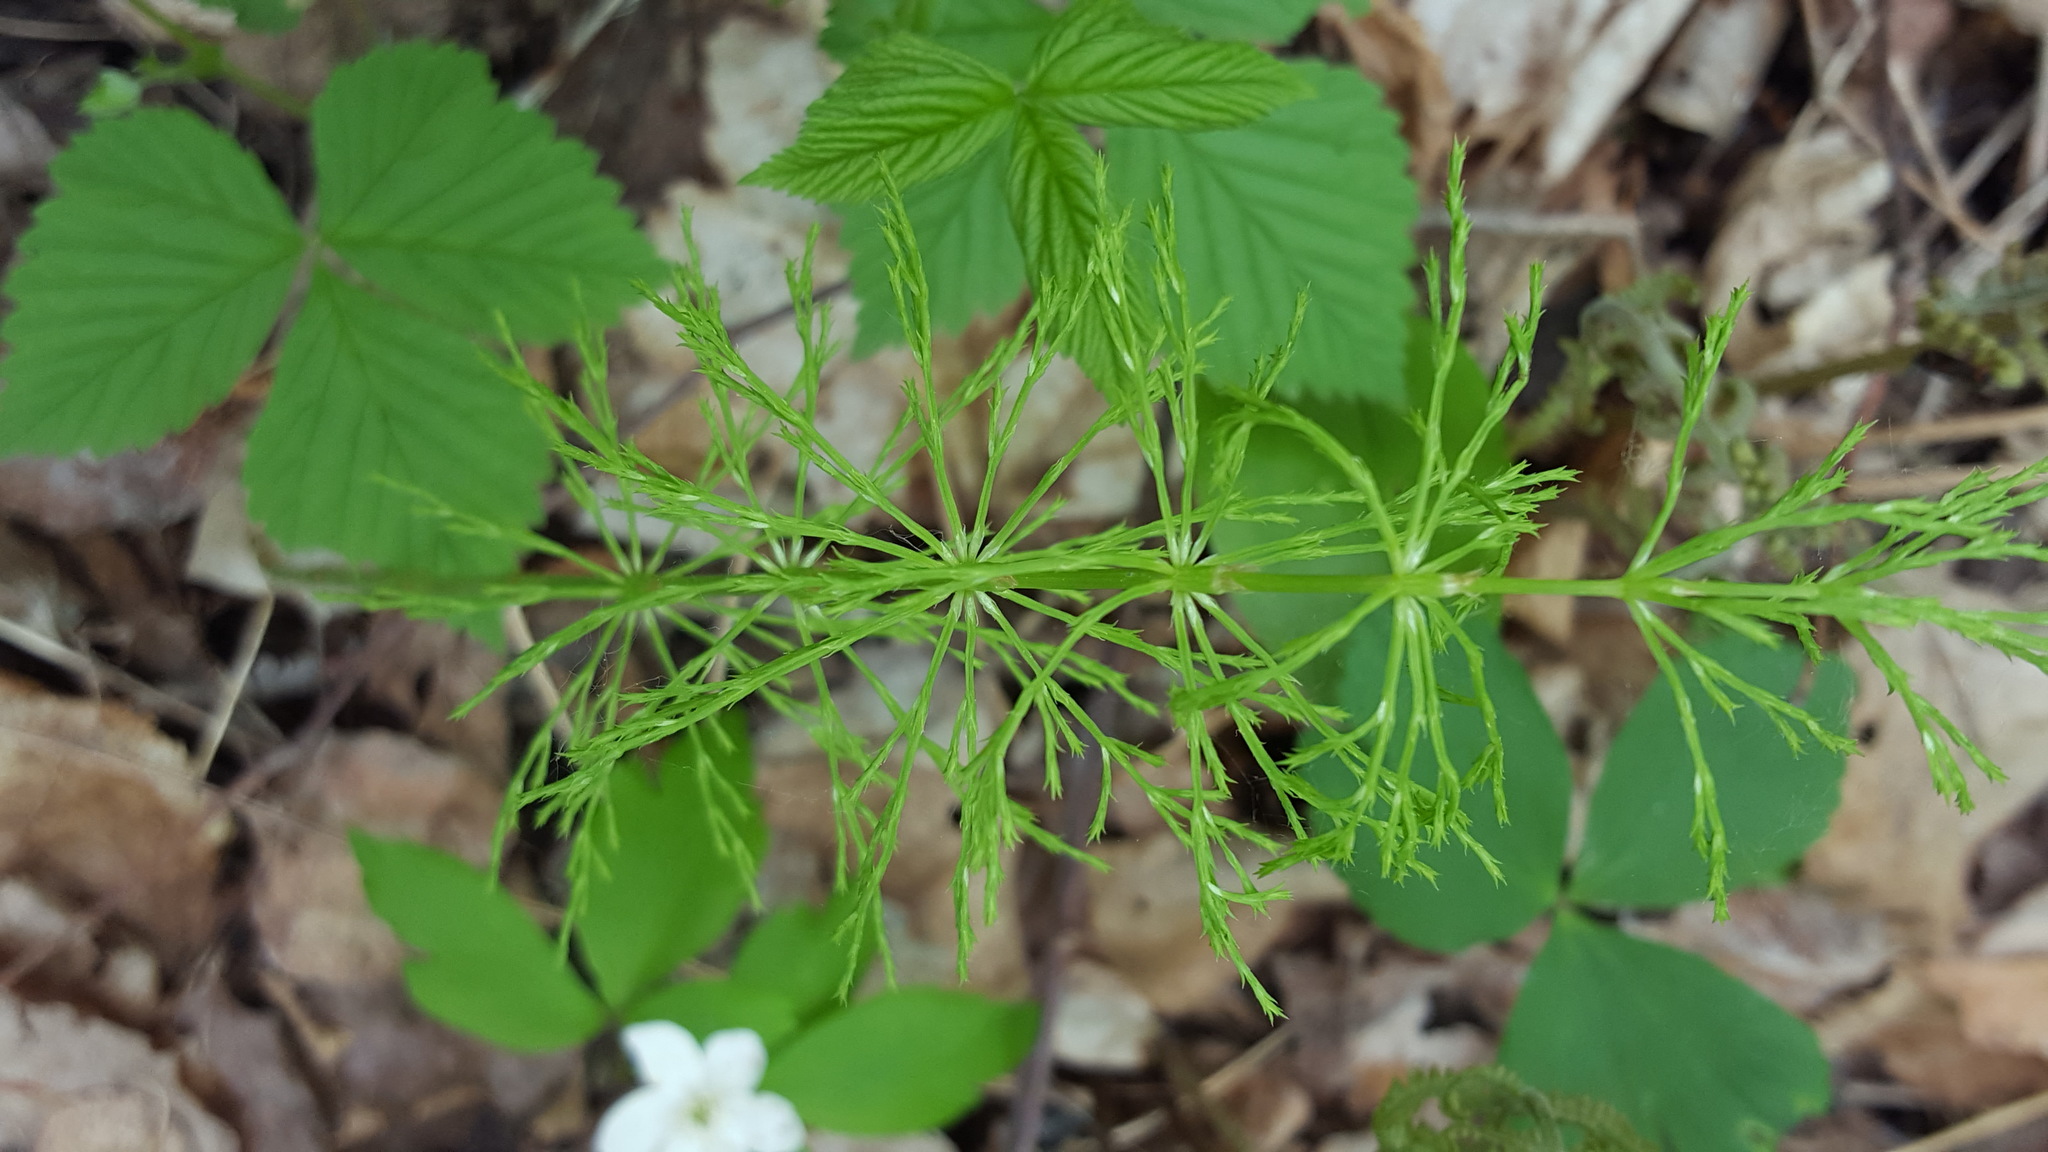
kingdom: Plantae
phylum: Tracheophyta
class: Polypodiopsida
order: Equisetales
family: Equisetaceae
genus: Equisetum
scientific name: Equisetum sylvaticum
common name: Wood horsetail
